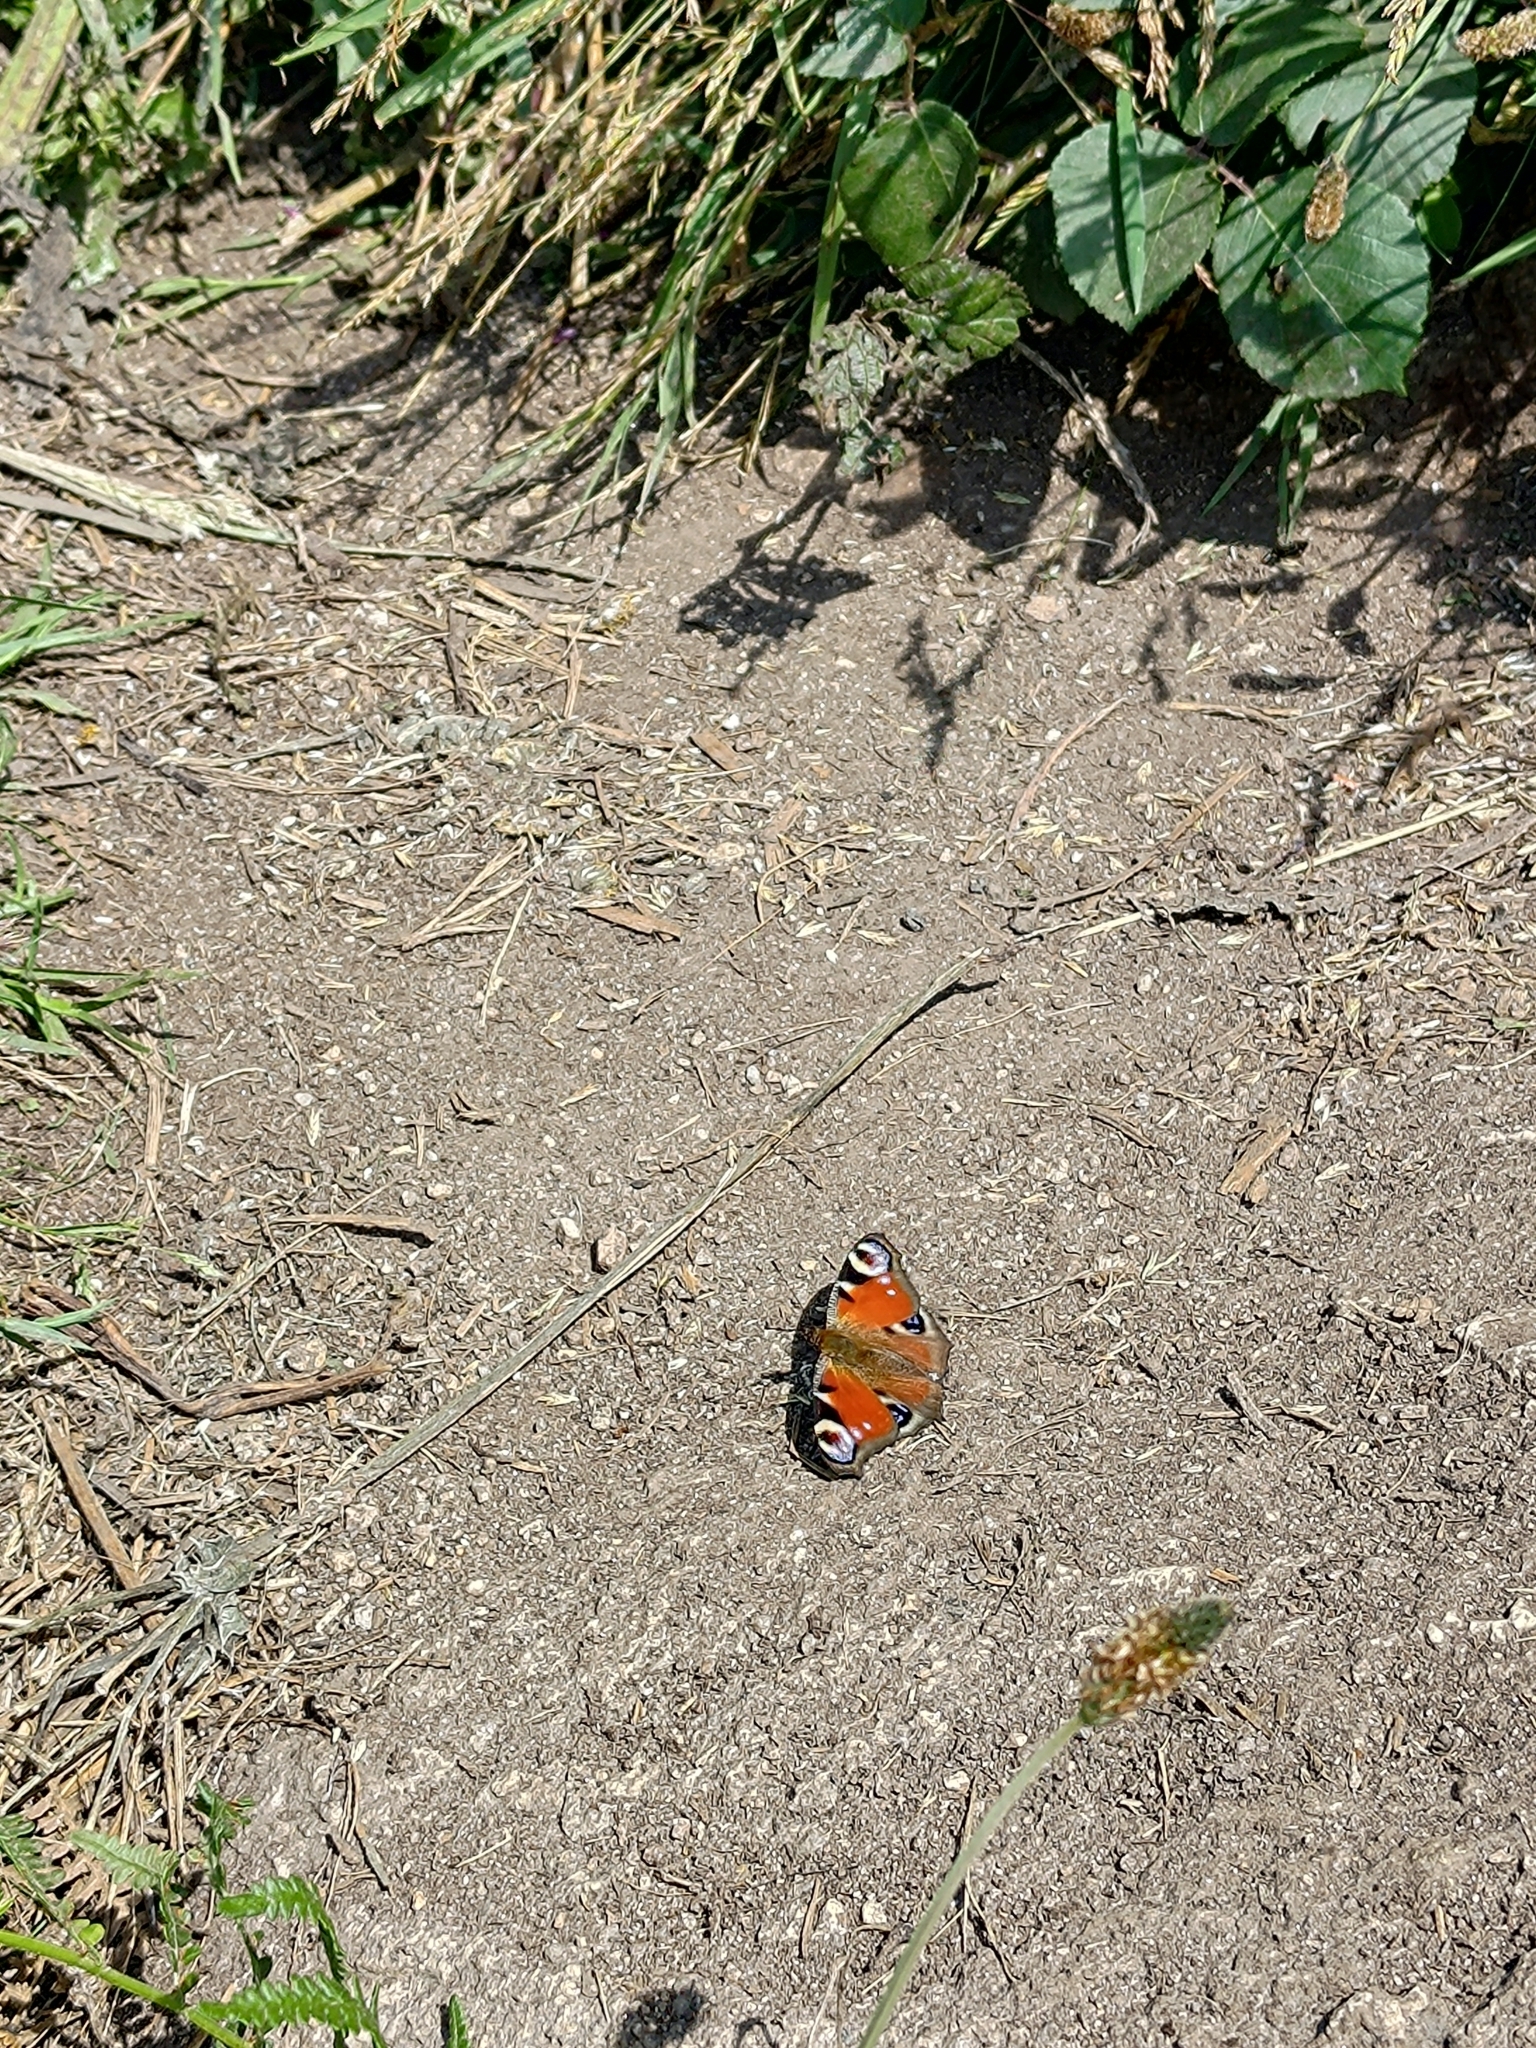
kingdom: Animalia
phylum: Arthropoda
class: Insecta
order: Lepidoptera
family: Nymphalidae
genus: Aglais
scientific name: Aglais io
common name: Peacock
